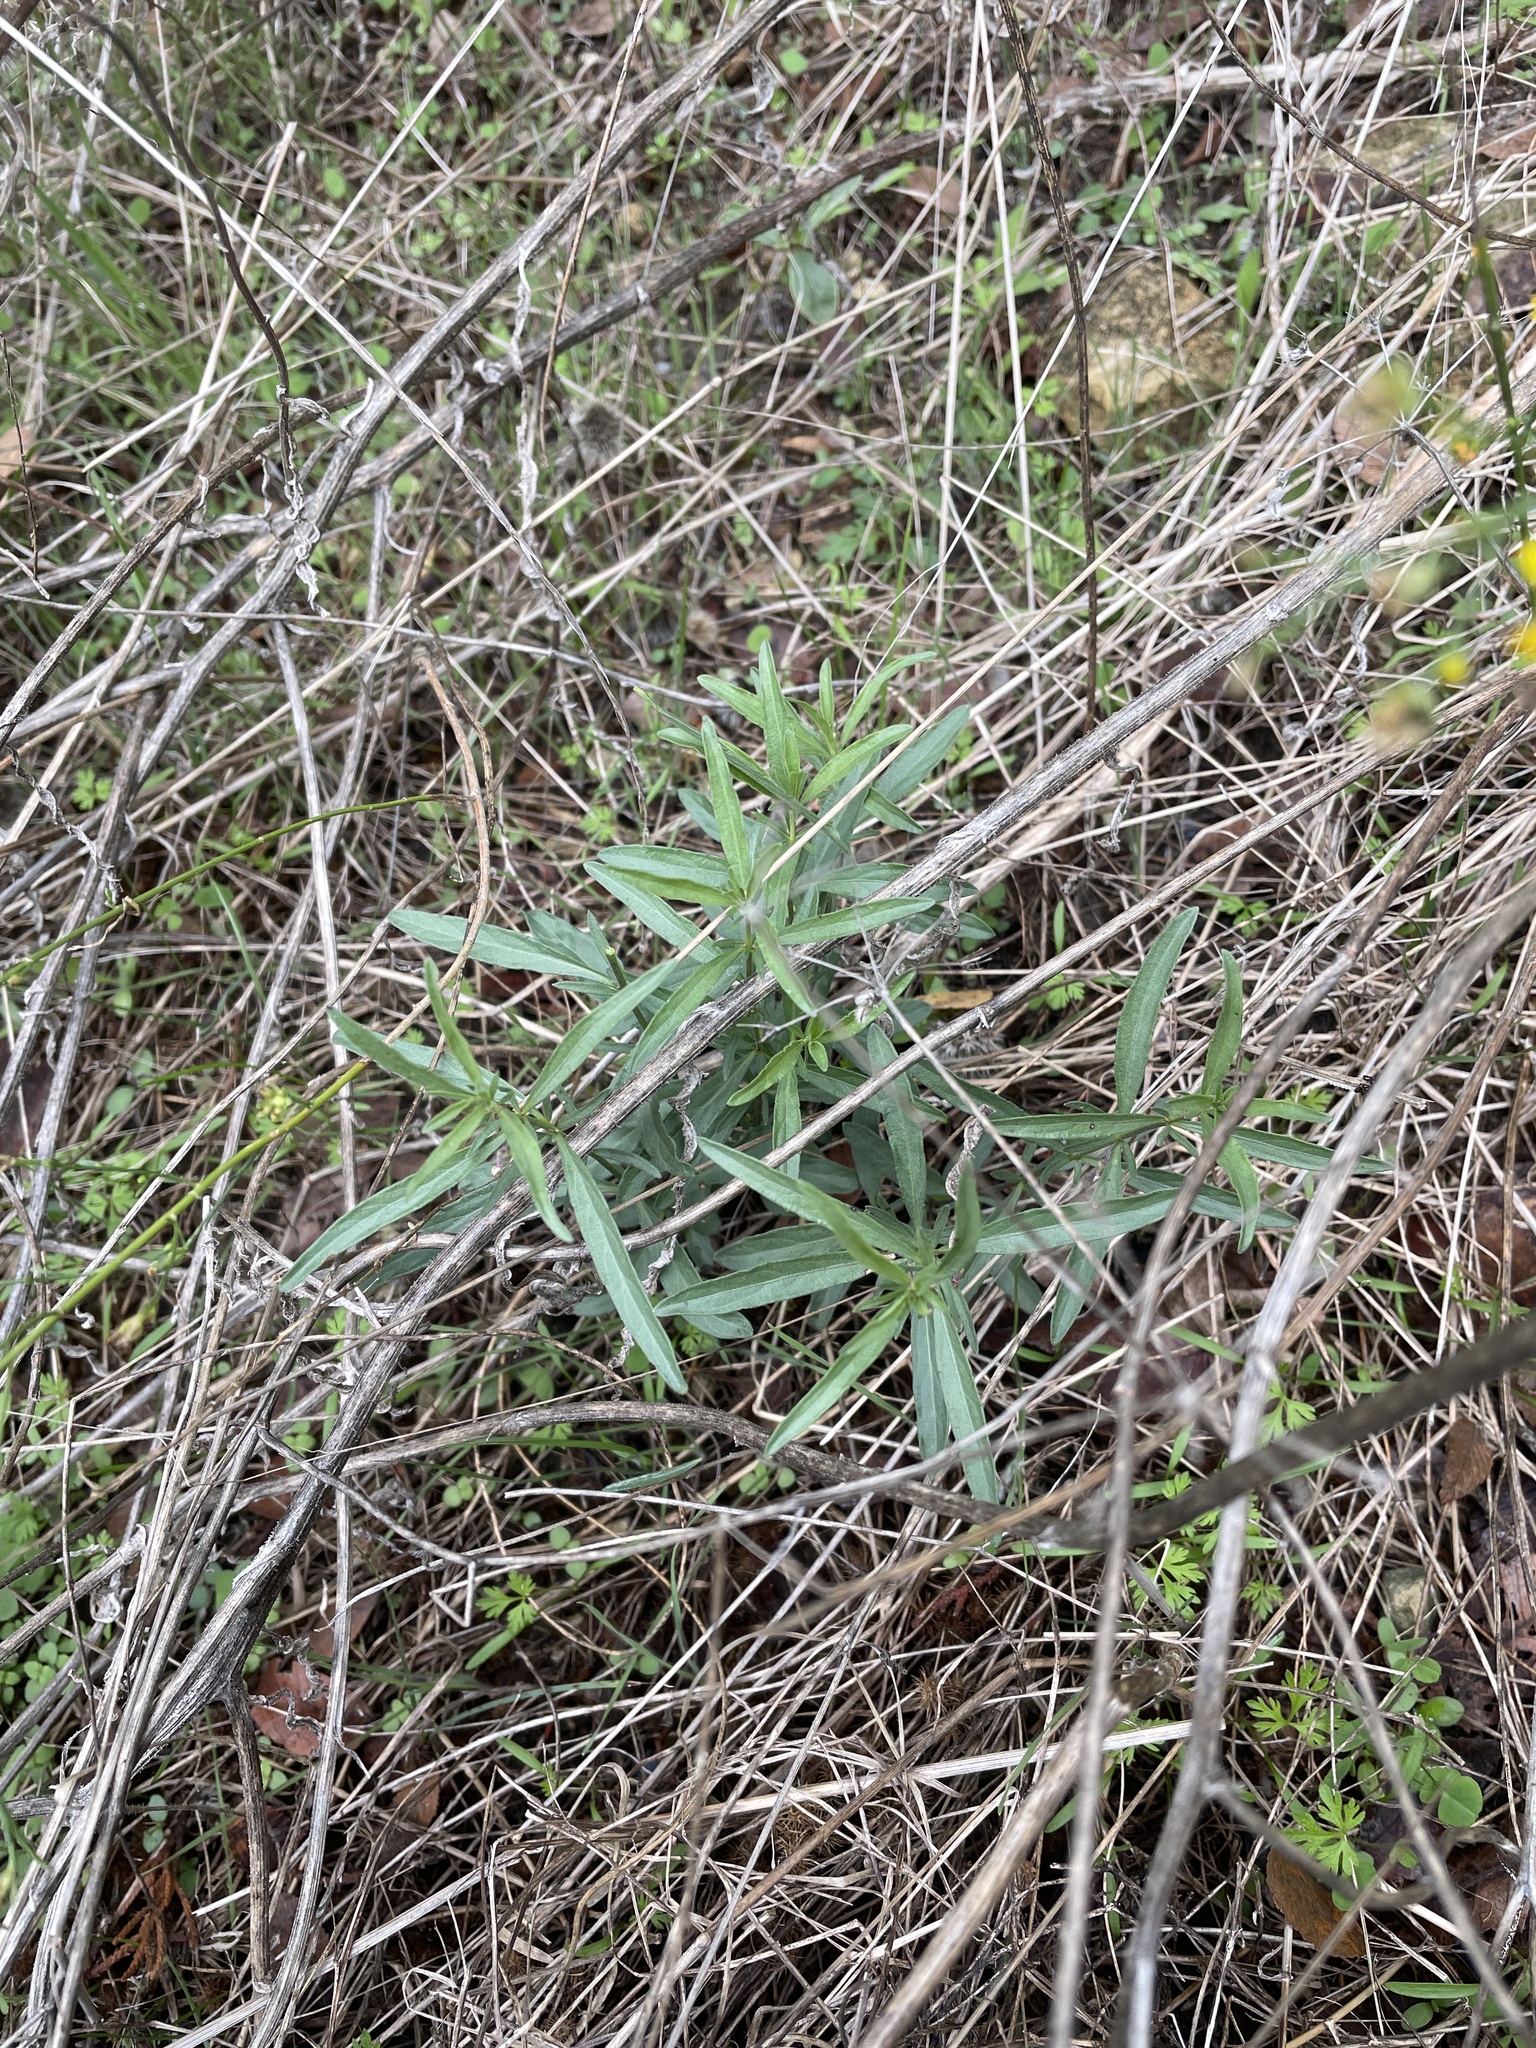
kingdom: Plantae
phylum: Tracheophyta
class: Magnoliopsida
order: Malpighiales
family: Violaceae
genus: Pombalia
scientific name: Pombalia verticillata
